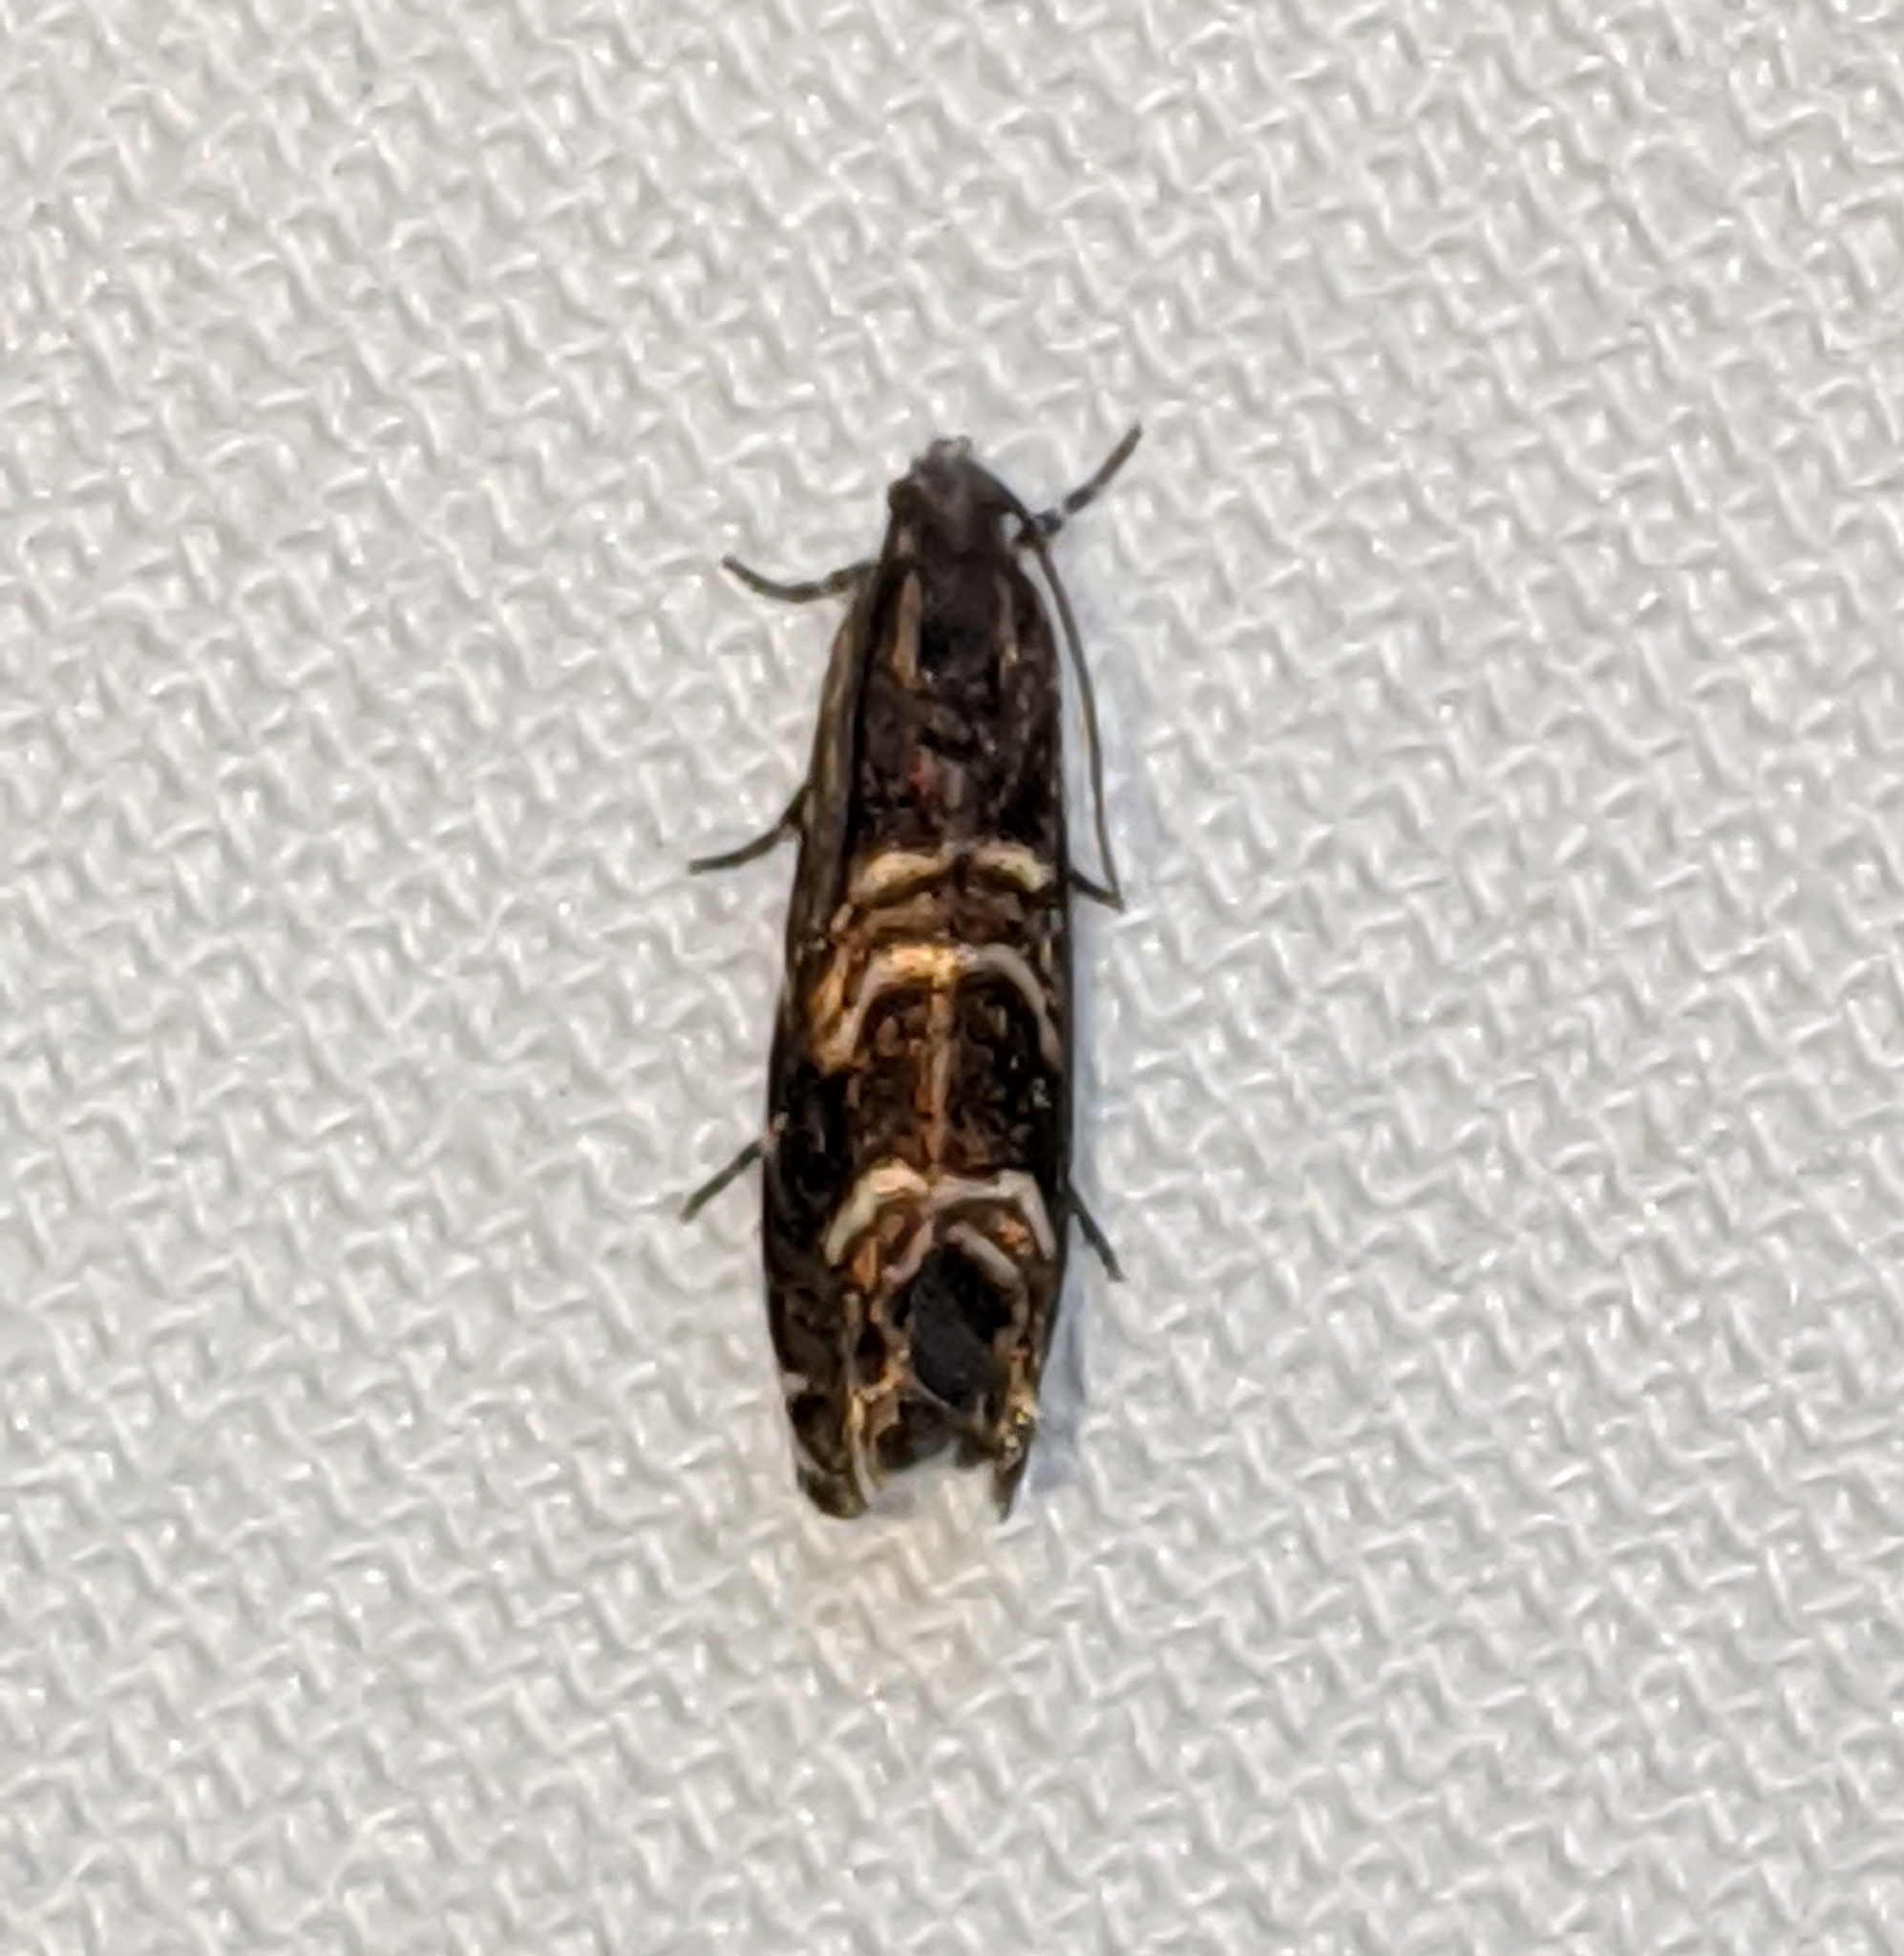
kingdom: Animalia
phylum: Arthropoda
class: Insecta
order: Lepidoptera
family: Tortricidae
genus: Thaumatographa
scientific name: Thaumatographa youngiella
